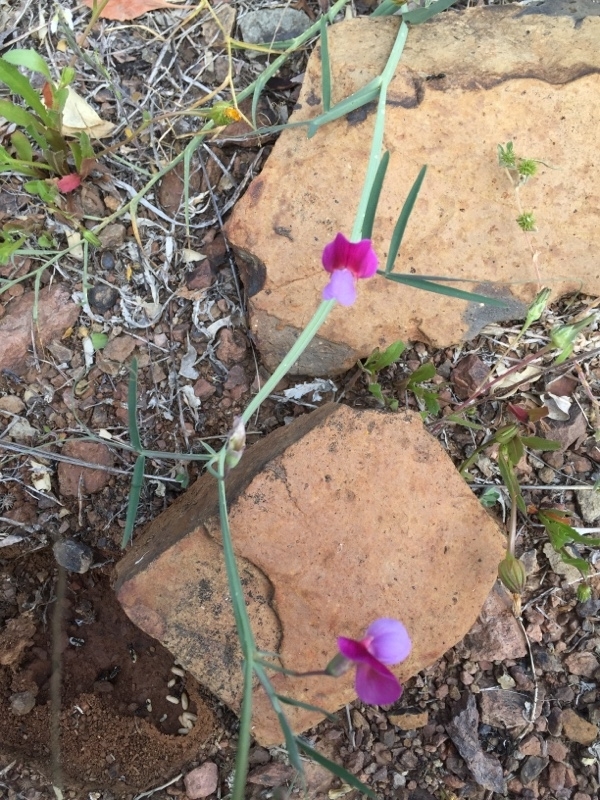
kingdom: Plantae
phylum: Tracheophyta
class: Magnoliopsida
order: Fabales
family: Fabaceae
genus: Lathyrus
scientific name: Lathyrus clymenum
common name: Spanish vetchling
